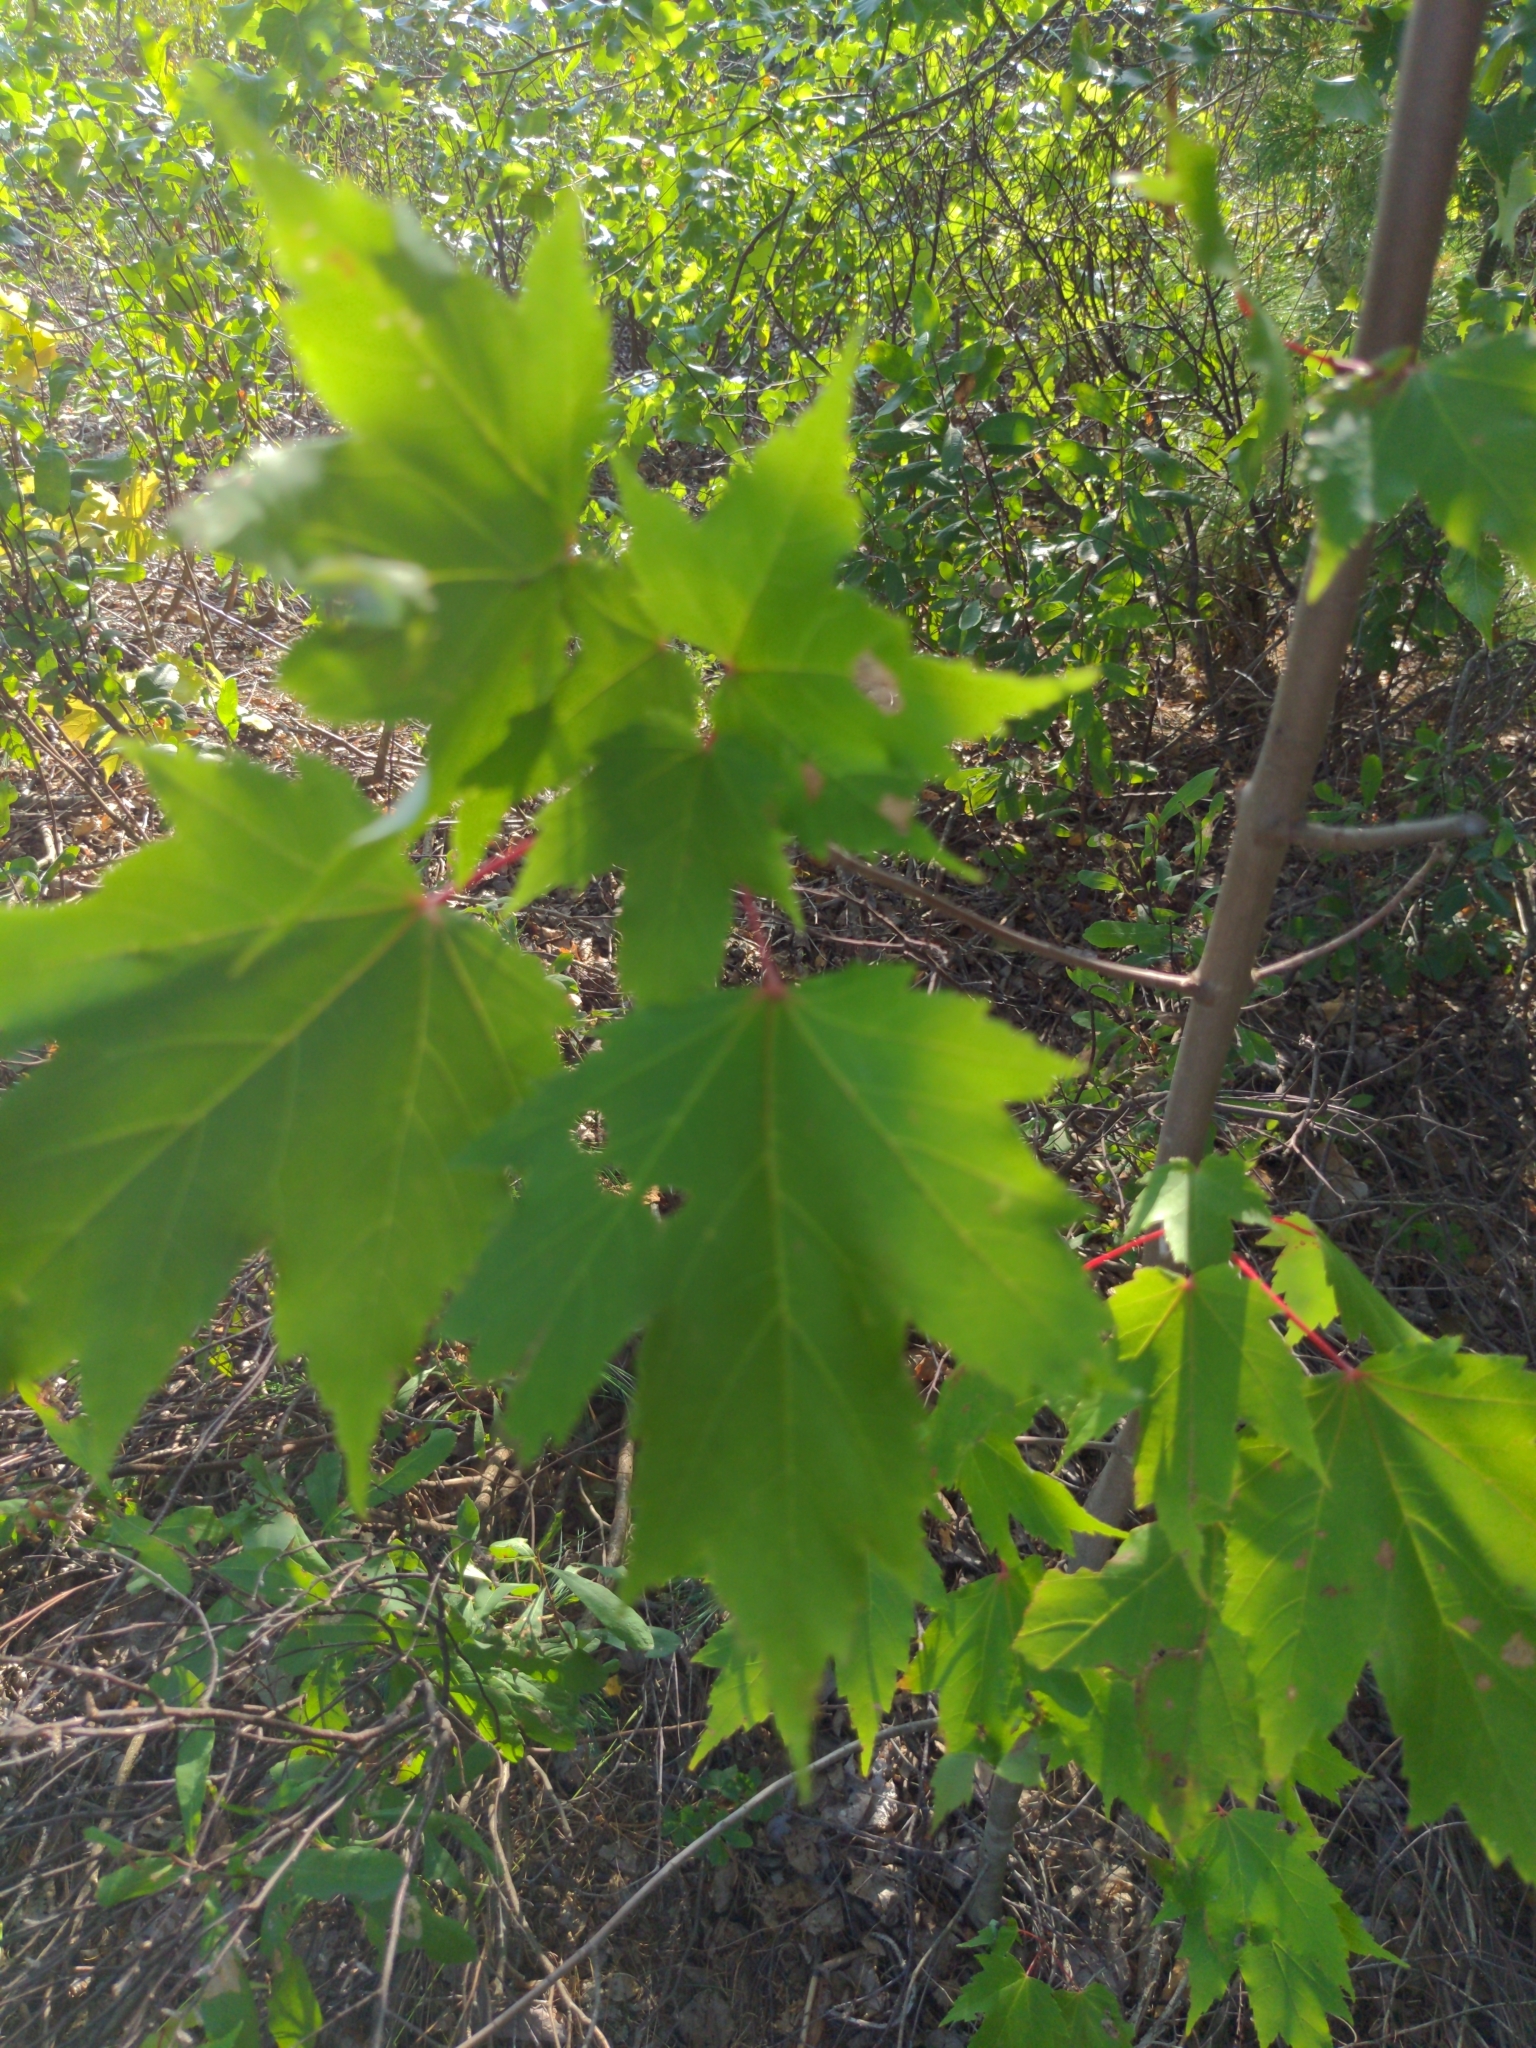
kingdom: Plantae
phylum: Tracheophyta
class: Magnoliopsida
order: Sapindales
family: Sapindaceae
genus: Acer
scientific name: Acer rubrum
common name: Red maple
